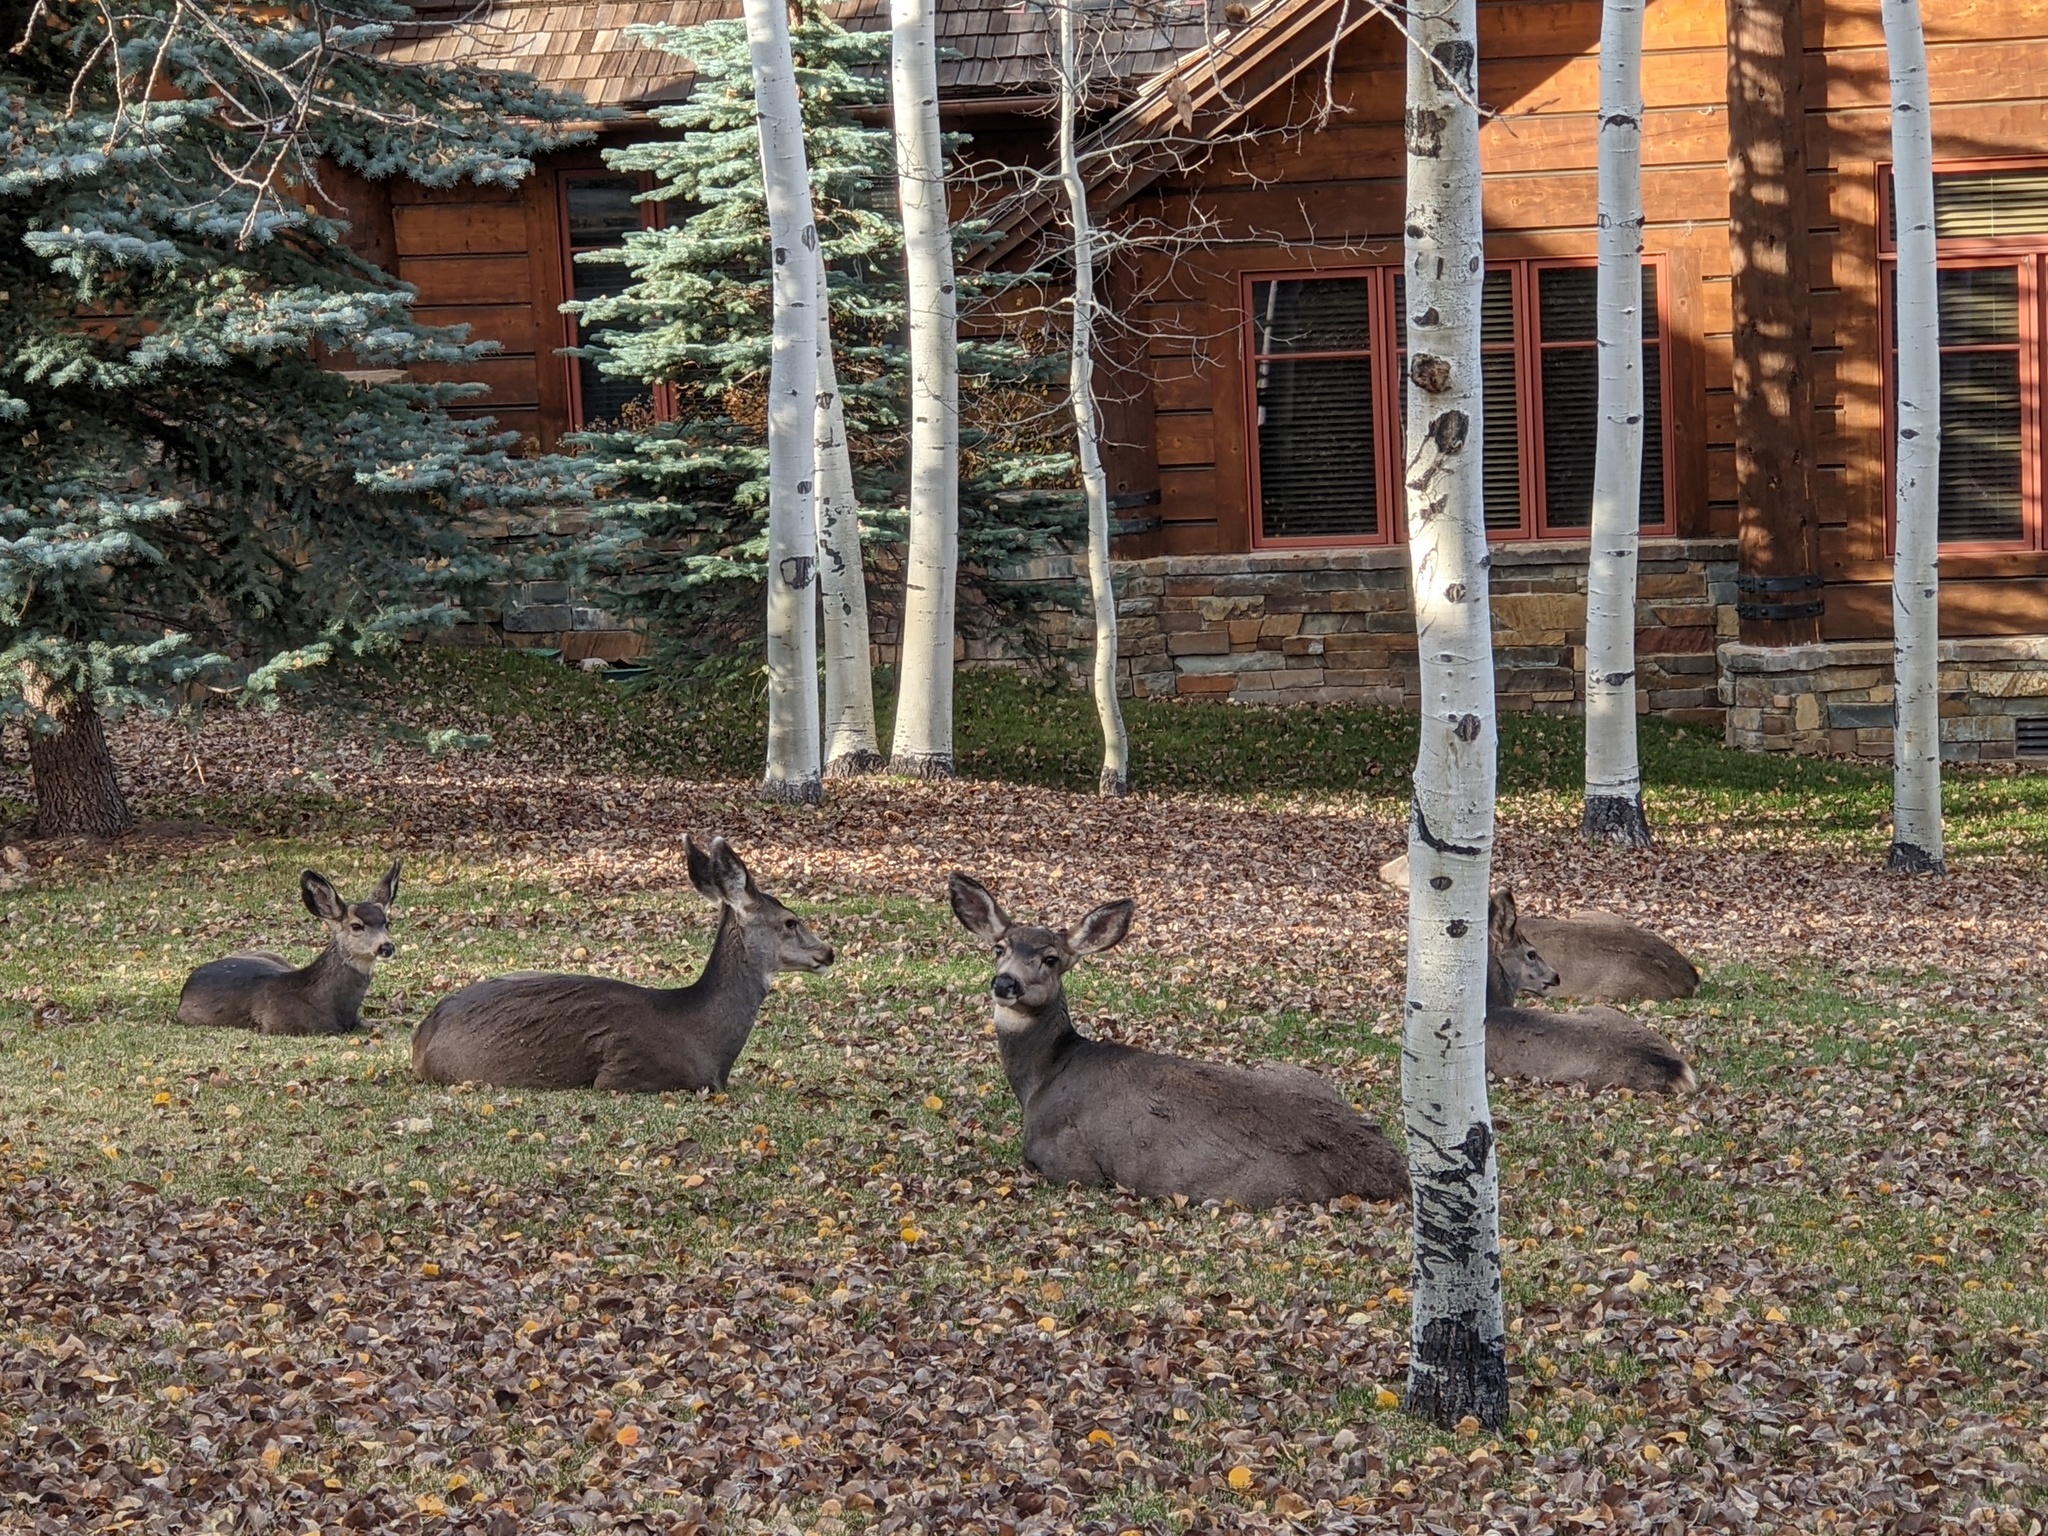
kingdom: Animalia
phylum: Chordata
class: Mammalia
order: Artiodactyla
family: Cervidae
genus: Odocoileus
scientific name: Odocoileus hemionus
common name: Mule deer
